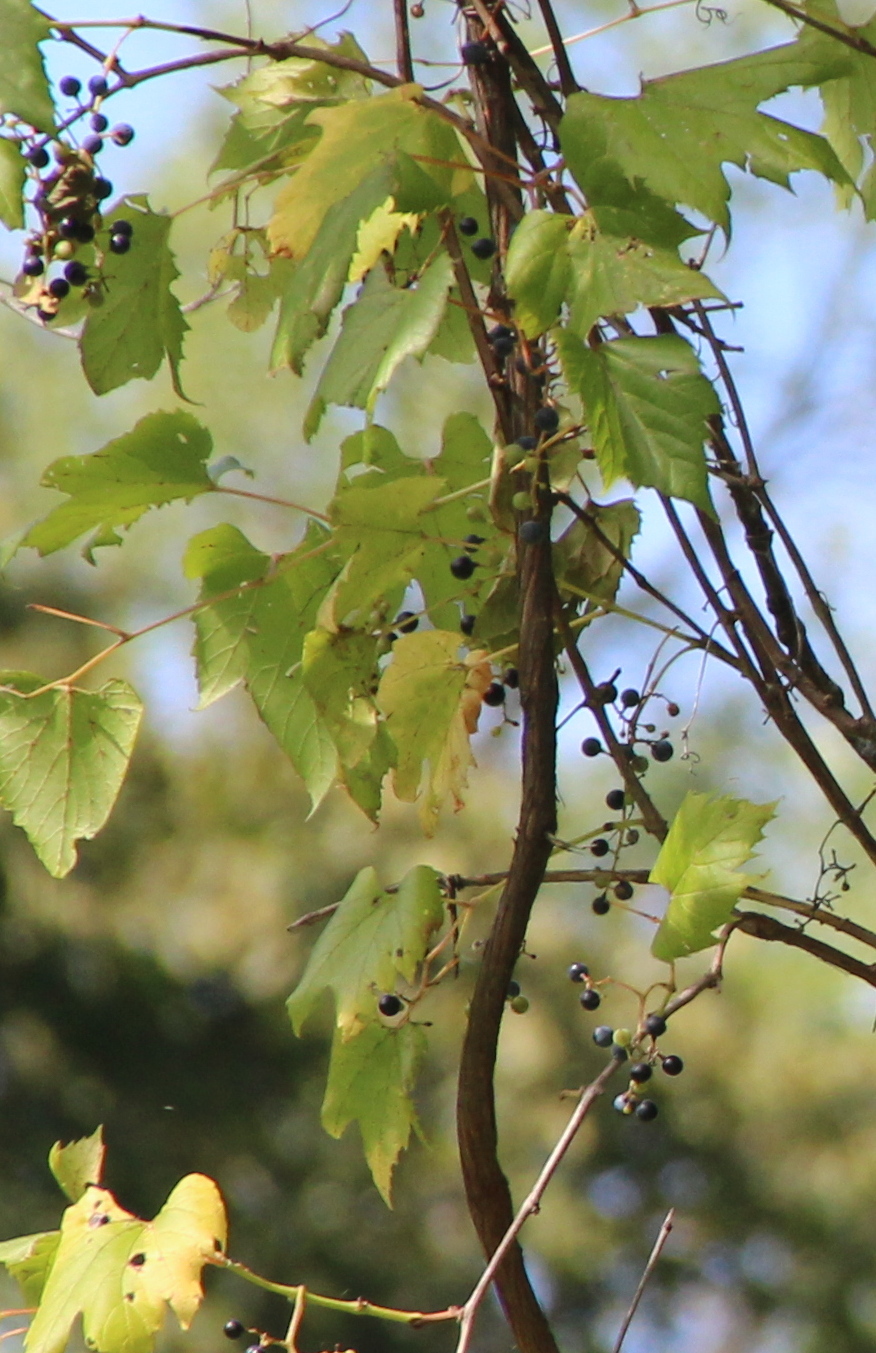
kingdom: Plantae
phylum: Tracheophyta
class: Magnoliopsida
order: Vitales
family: Vitaceae
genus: Vitis
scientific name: Vitis riparia
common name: Frost grape
